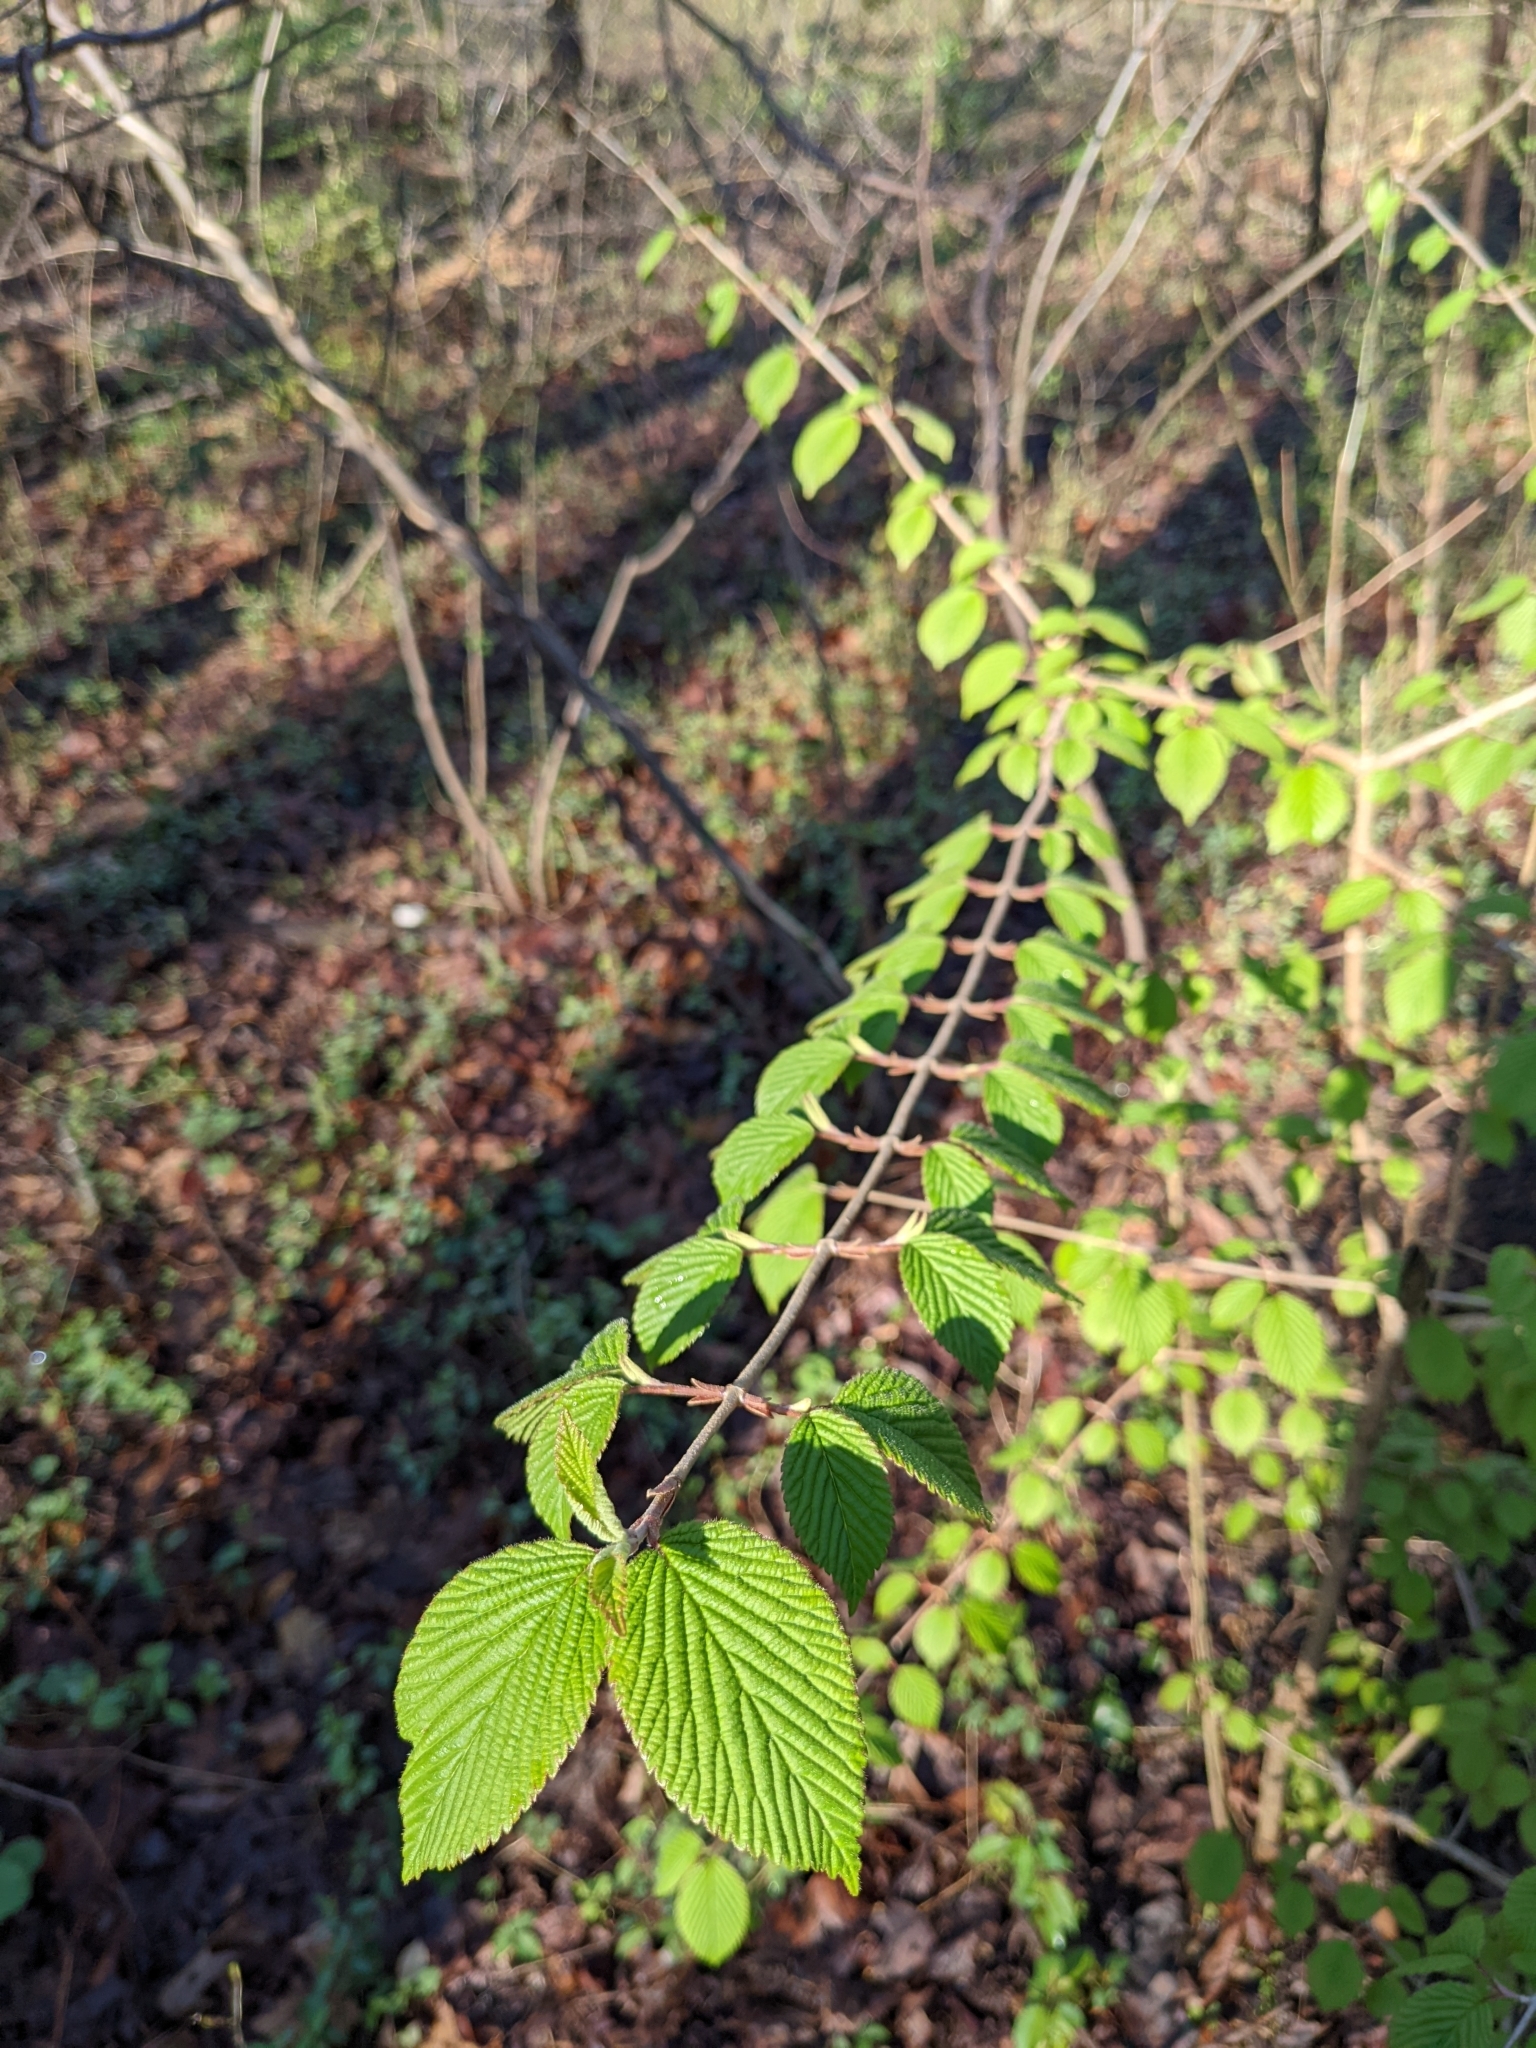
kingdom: Plantae
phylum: Tracheophyta
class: Magnoliopsida
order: Dipsacales
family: Viburnaceae
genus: Viburnum
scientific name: Viburnum plicatum
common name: Japanese snowball
